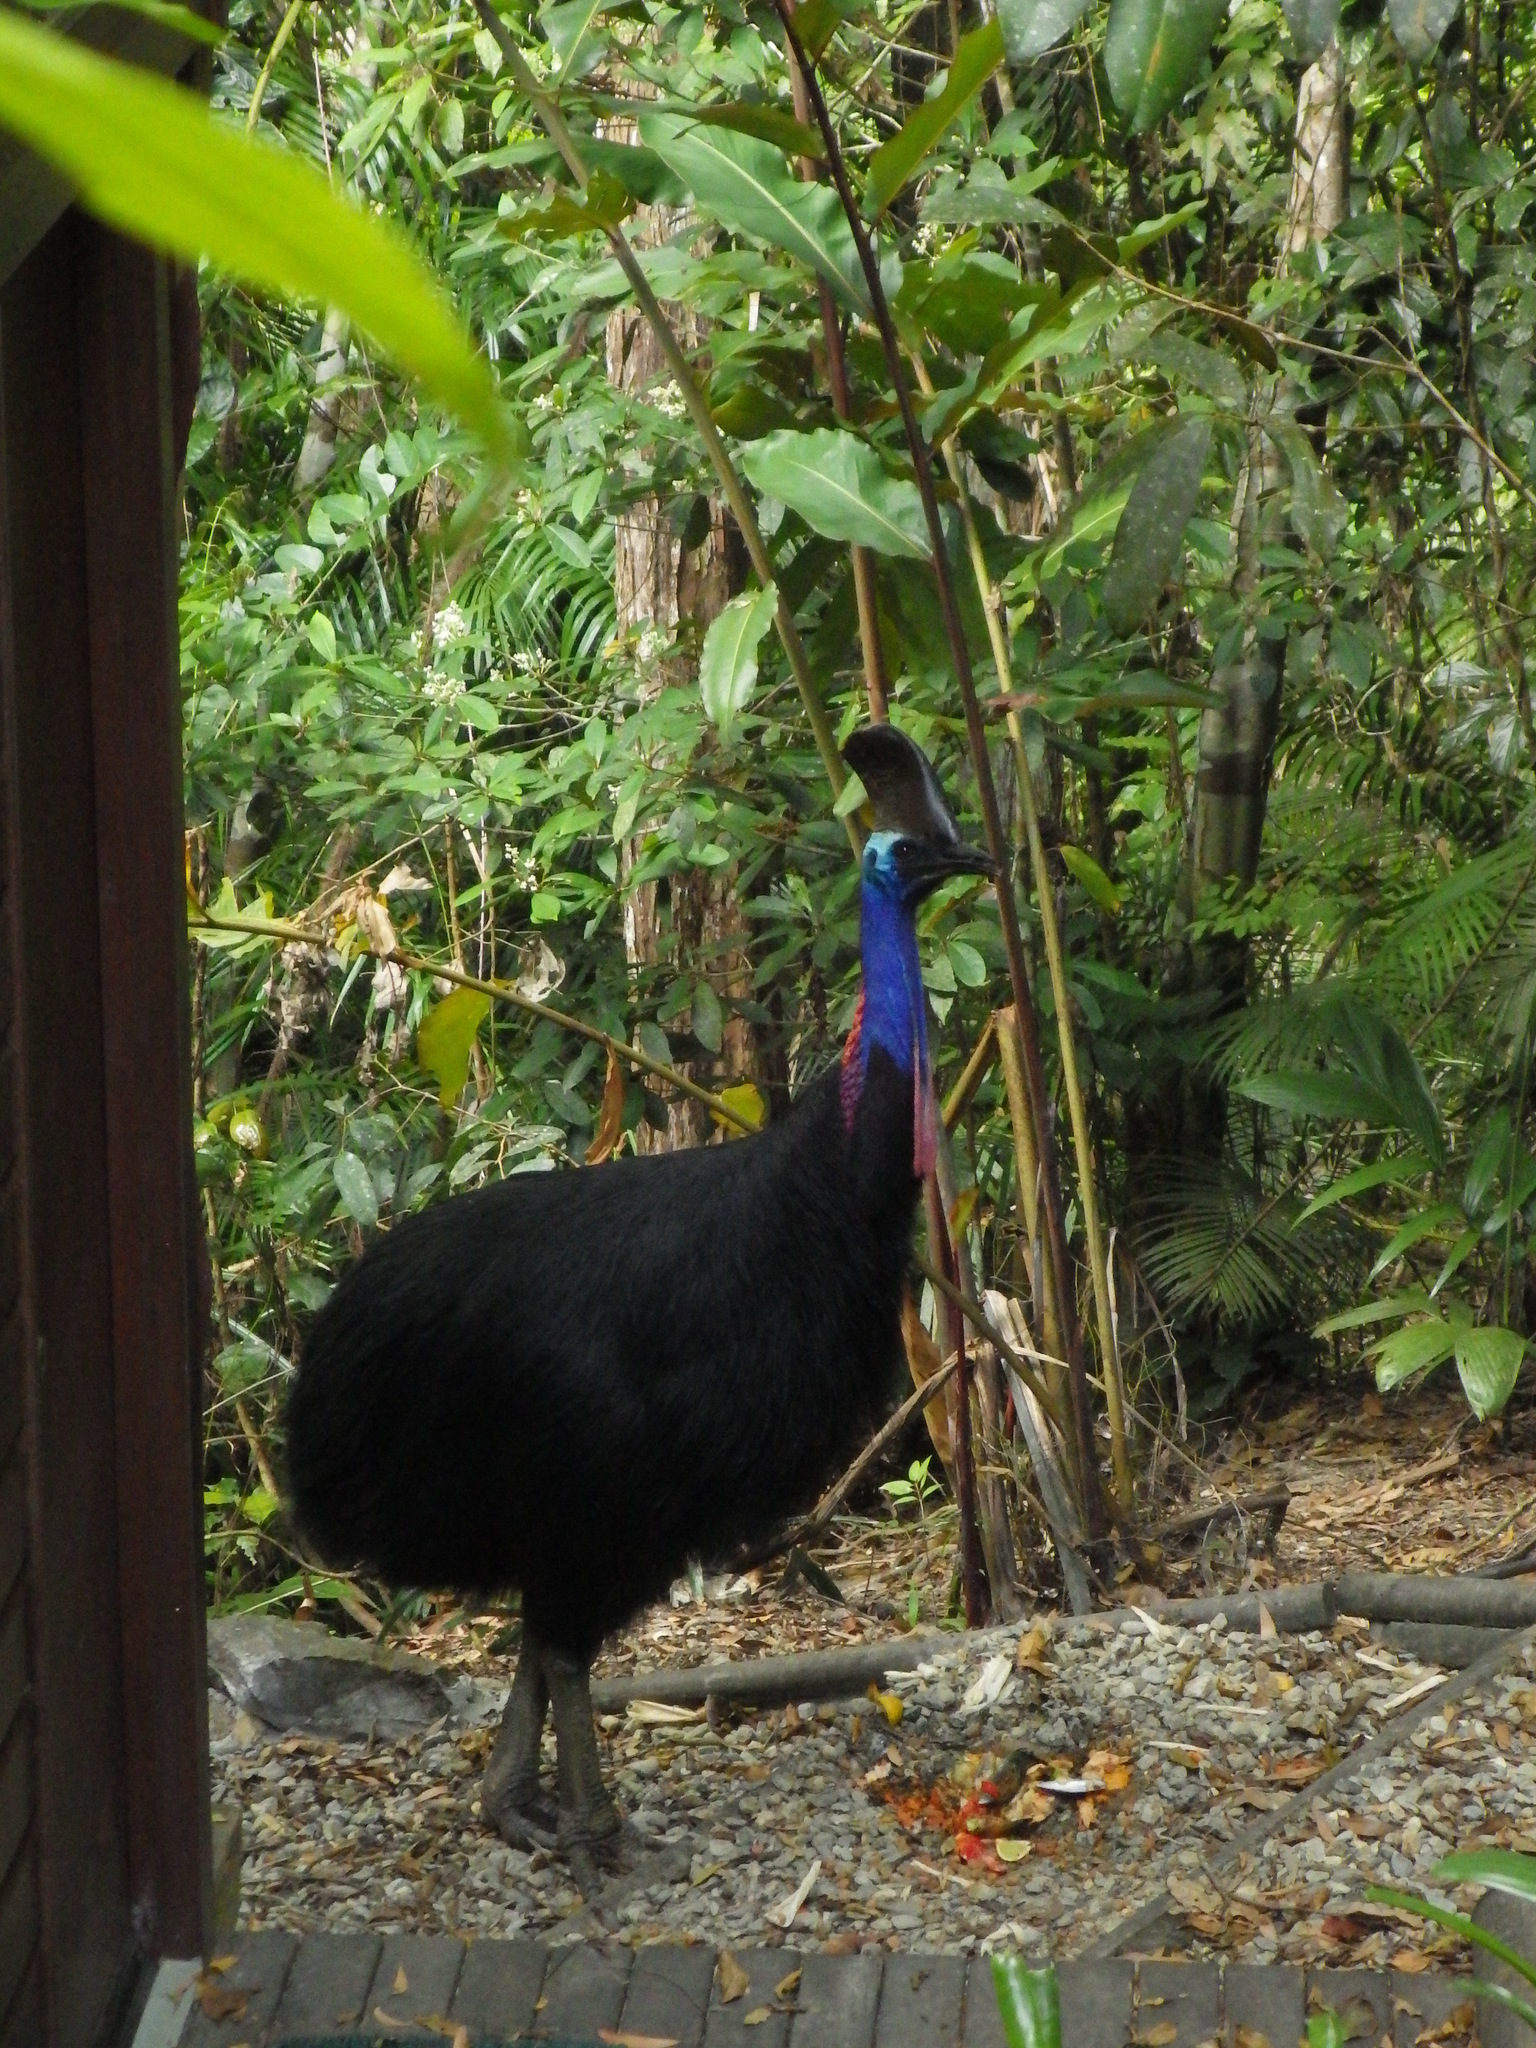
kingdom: Animalia
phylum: Chordata
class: Aves
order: Casuariiformes
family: Casuariidae
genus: Casuarius
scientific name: Casuarius casuarius
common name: Southern cassowary
